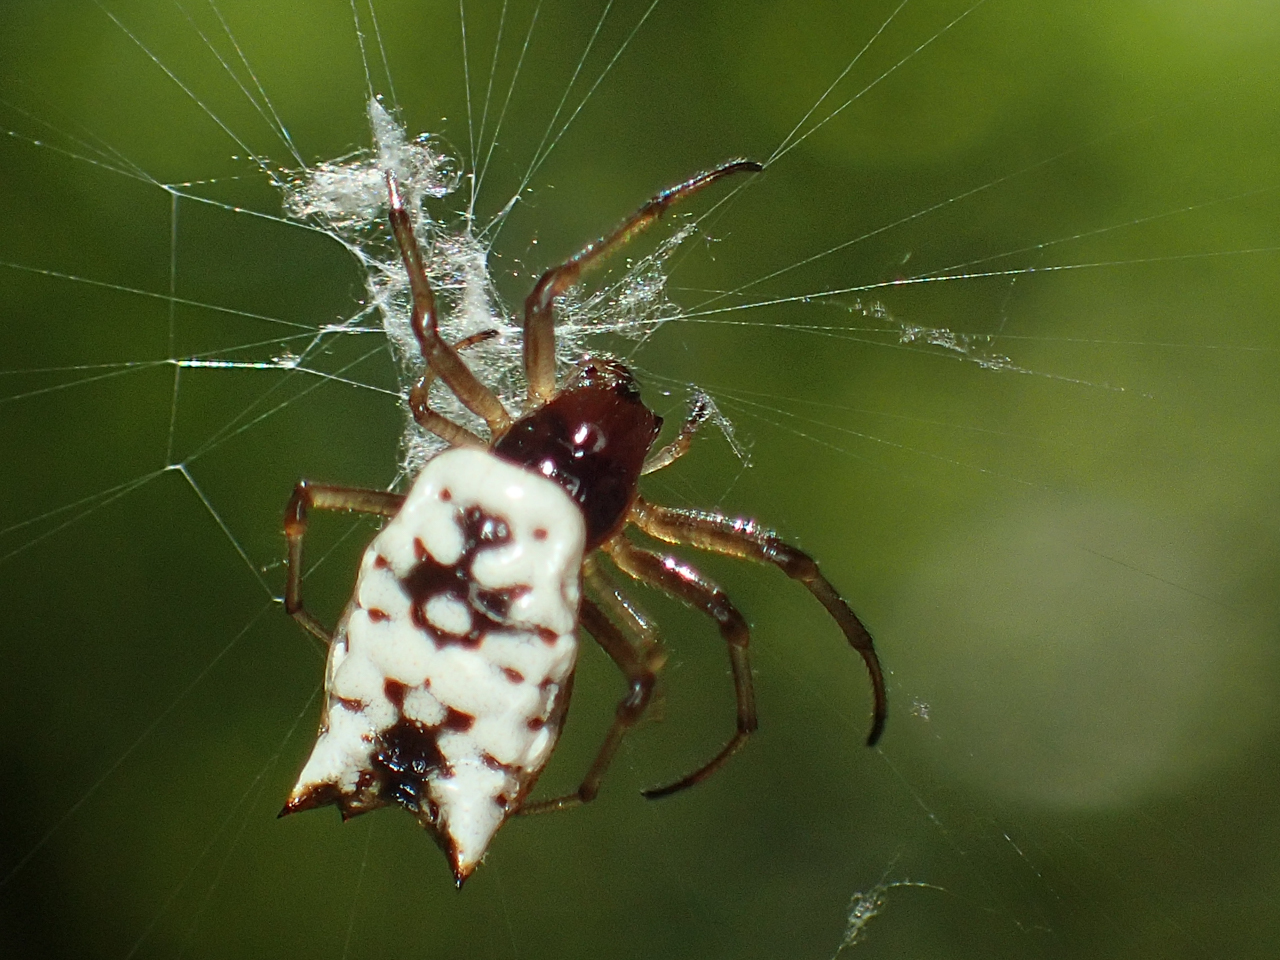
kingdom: Animalia
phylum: Arthropoda
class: Arachnida
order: Araneae
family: Araneidae
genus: Micrathena
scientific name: Micrathena mitrata
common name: Orb weavers
